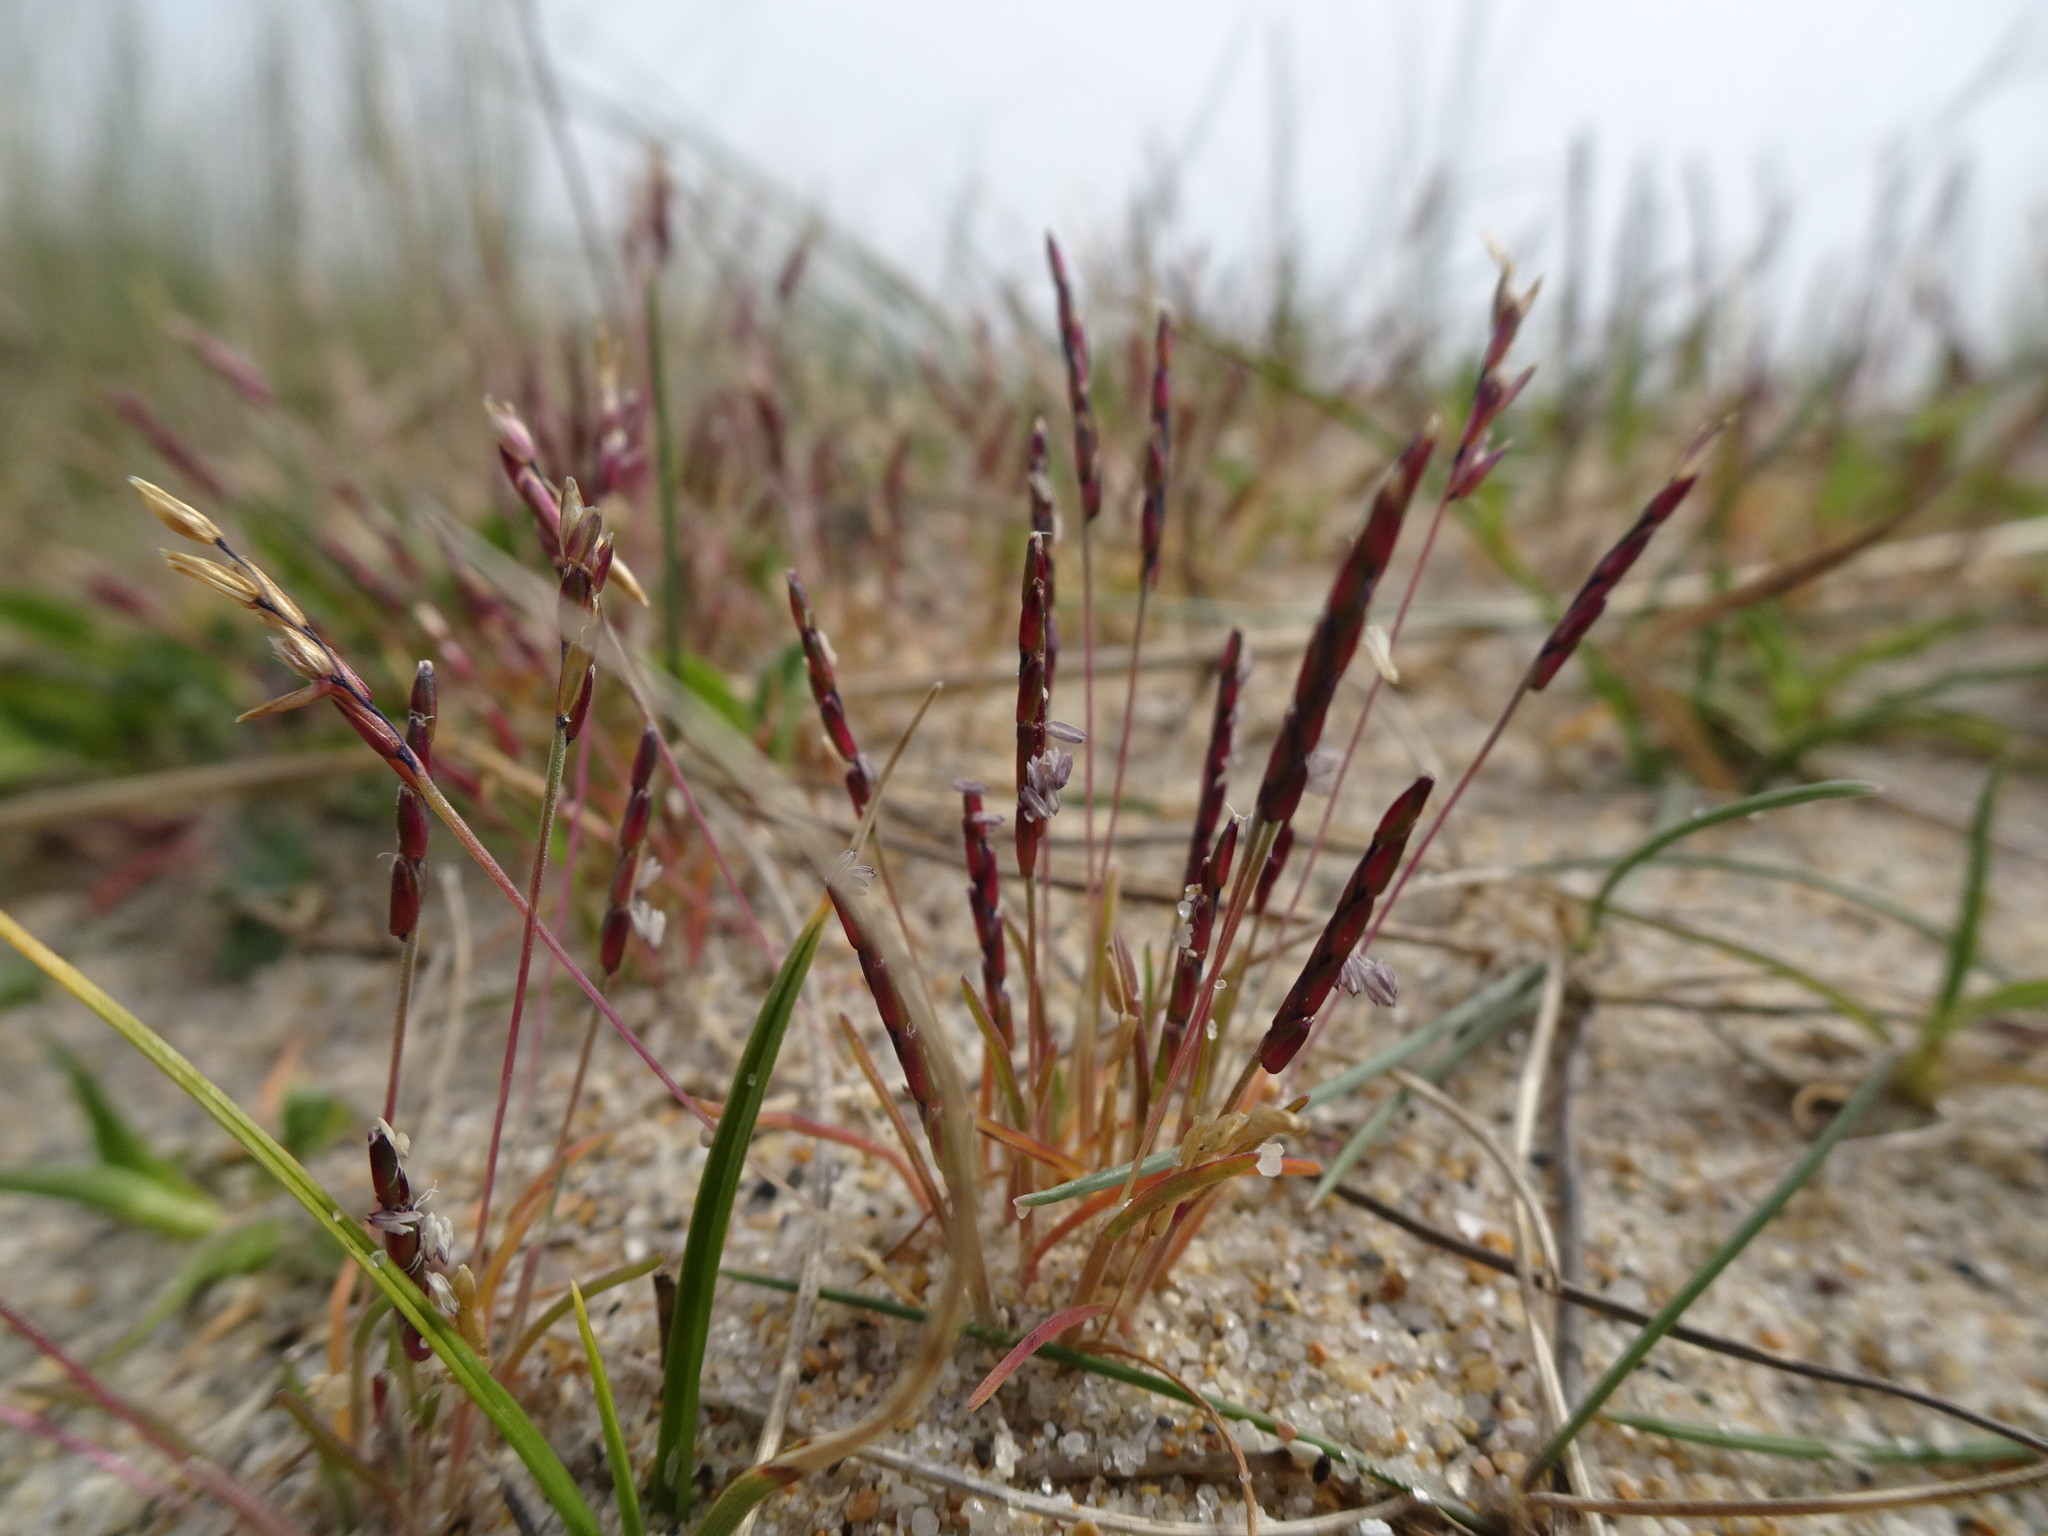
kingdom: Plantae
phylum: Tracheophyta
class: Liliopsida
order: Poales
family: Poaceae
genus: Mibora
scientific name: Mibora minima
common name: Early sand-grass
